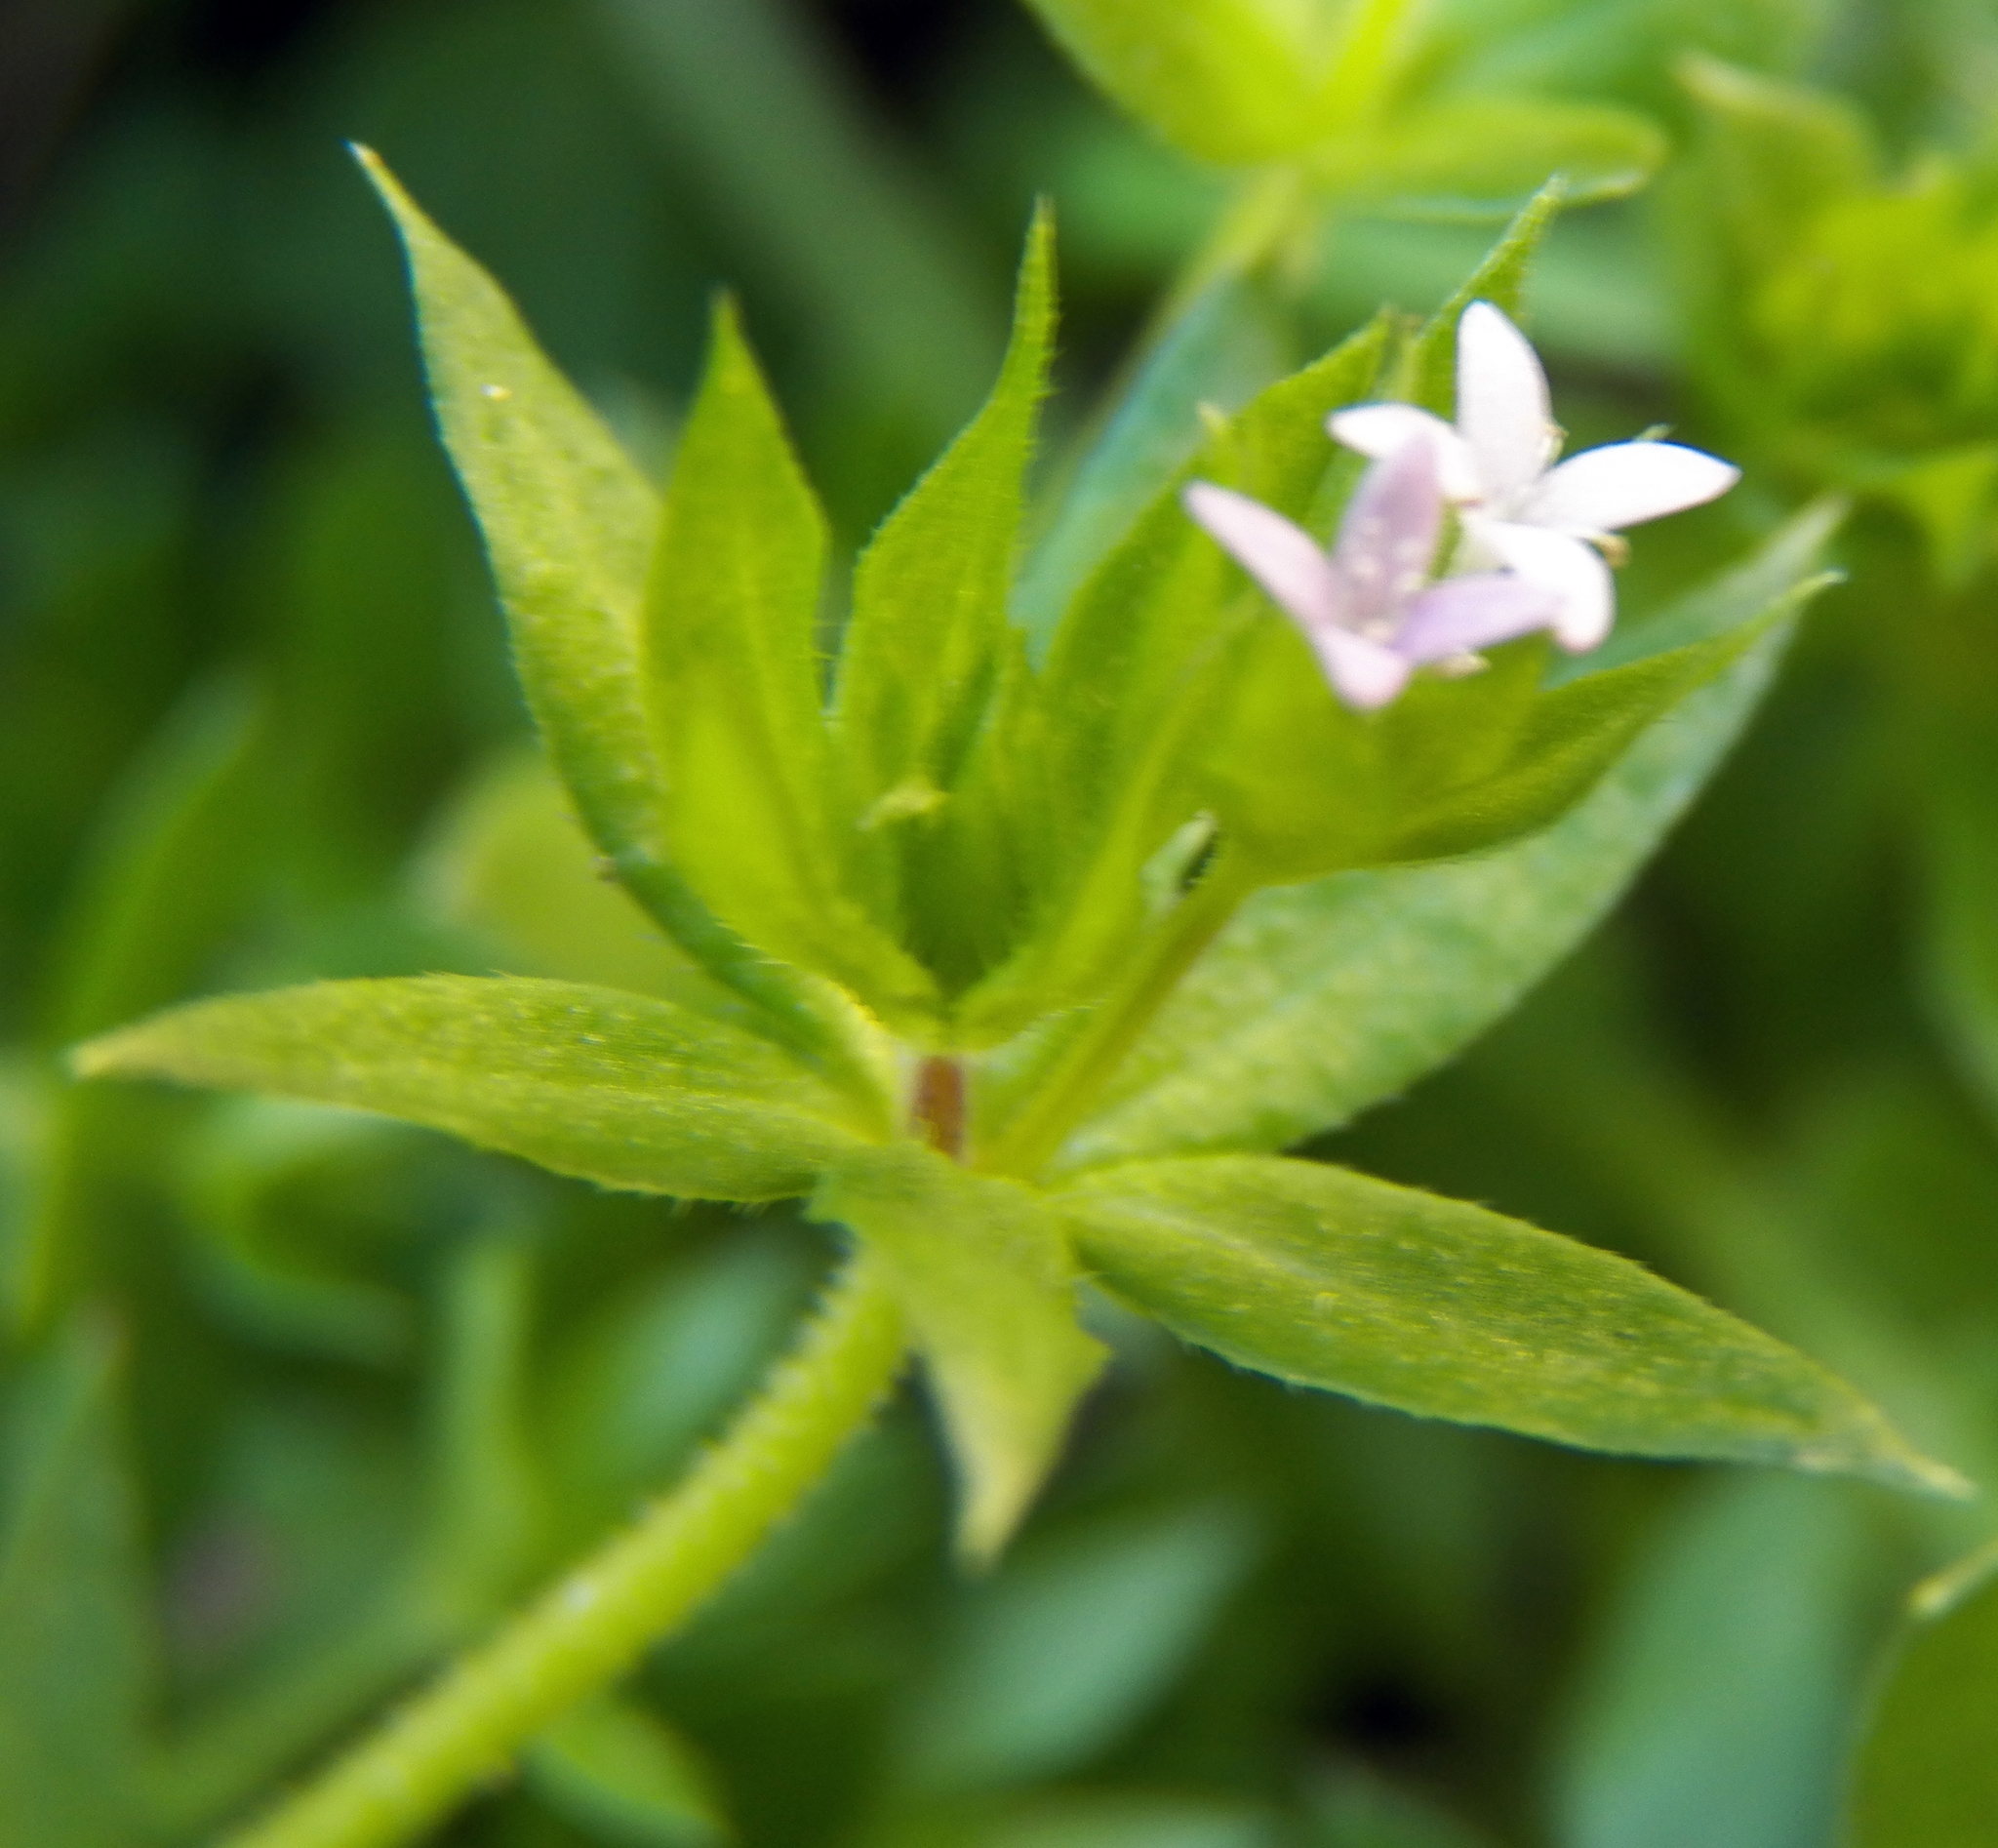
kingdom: Plantae
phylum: Tracheophyta
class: Magnoliopsida
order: Gentianales
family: Rubiaceae
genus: Sherardia
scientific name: Sherardia arvensis
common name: Field madder
